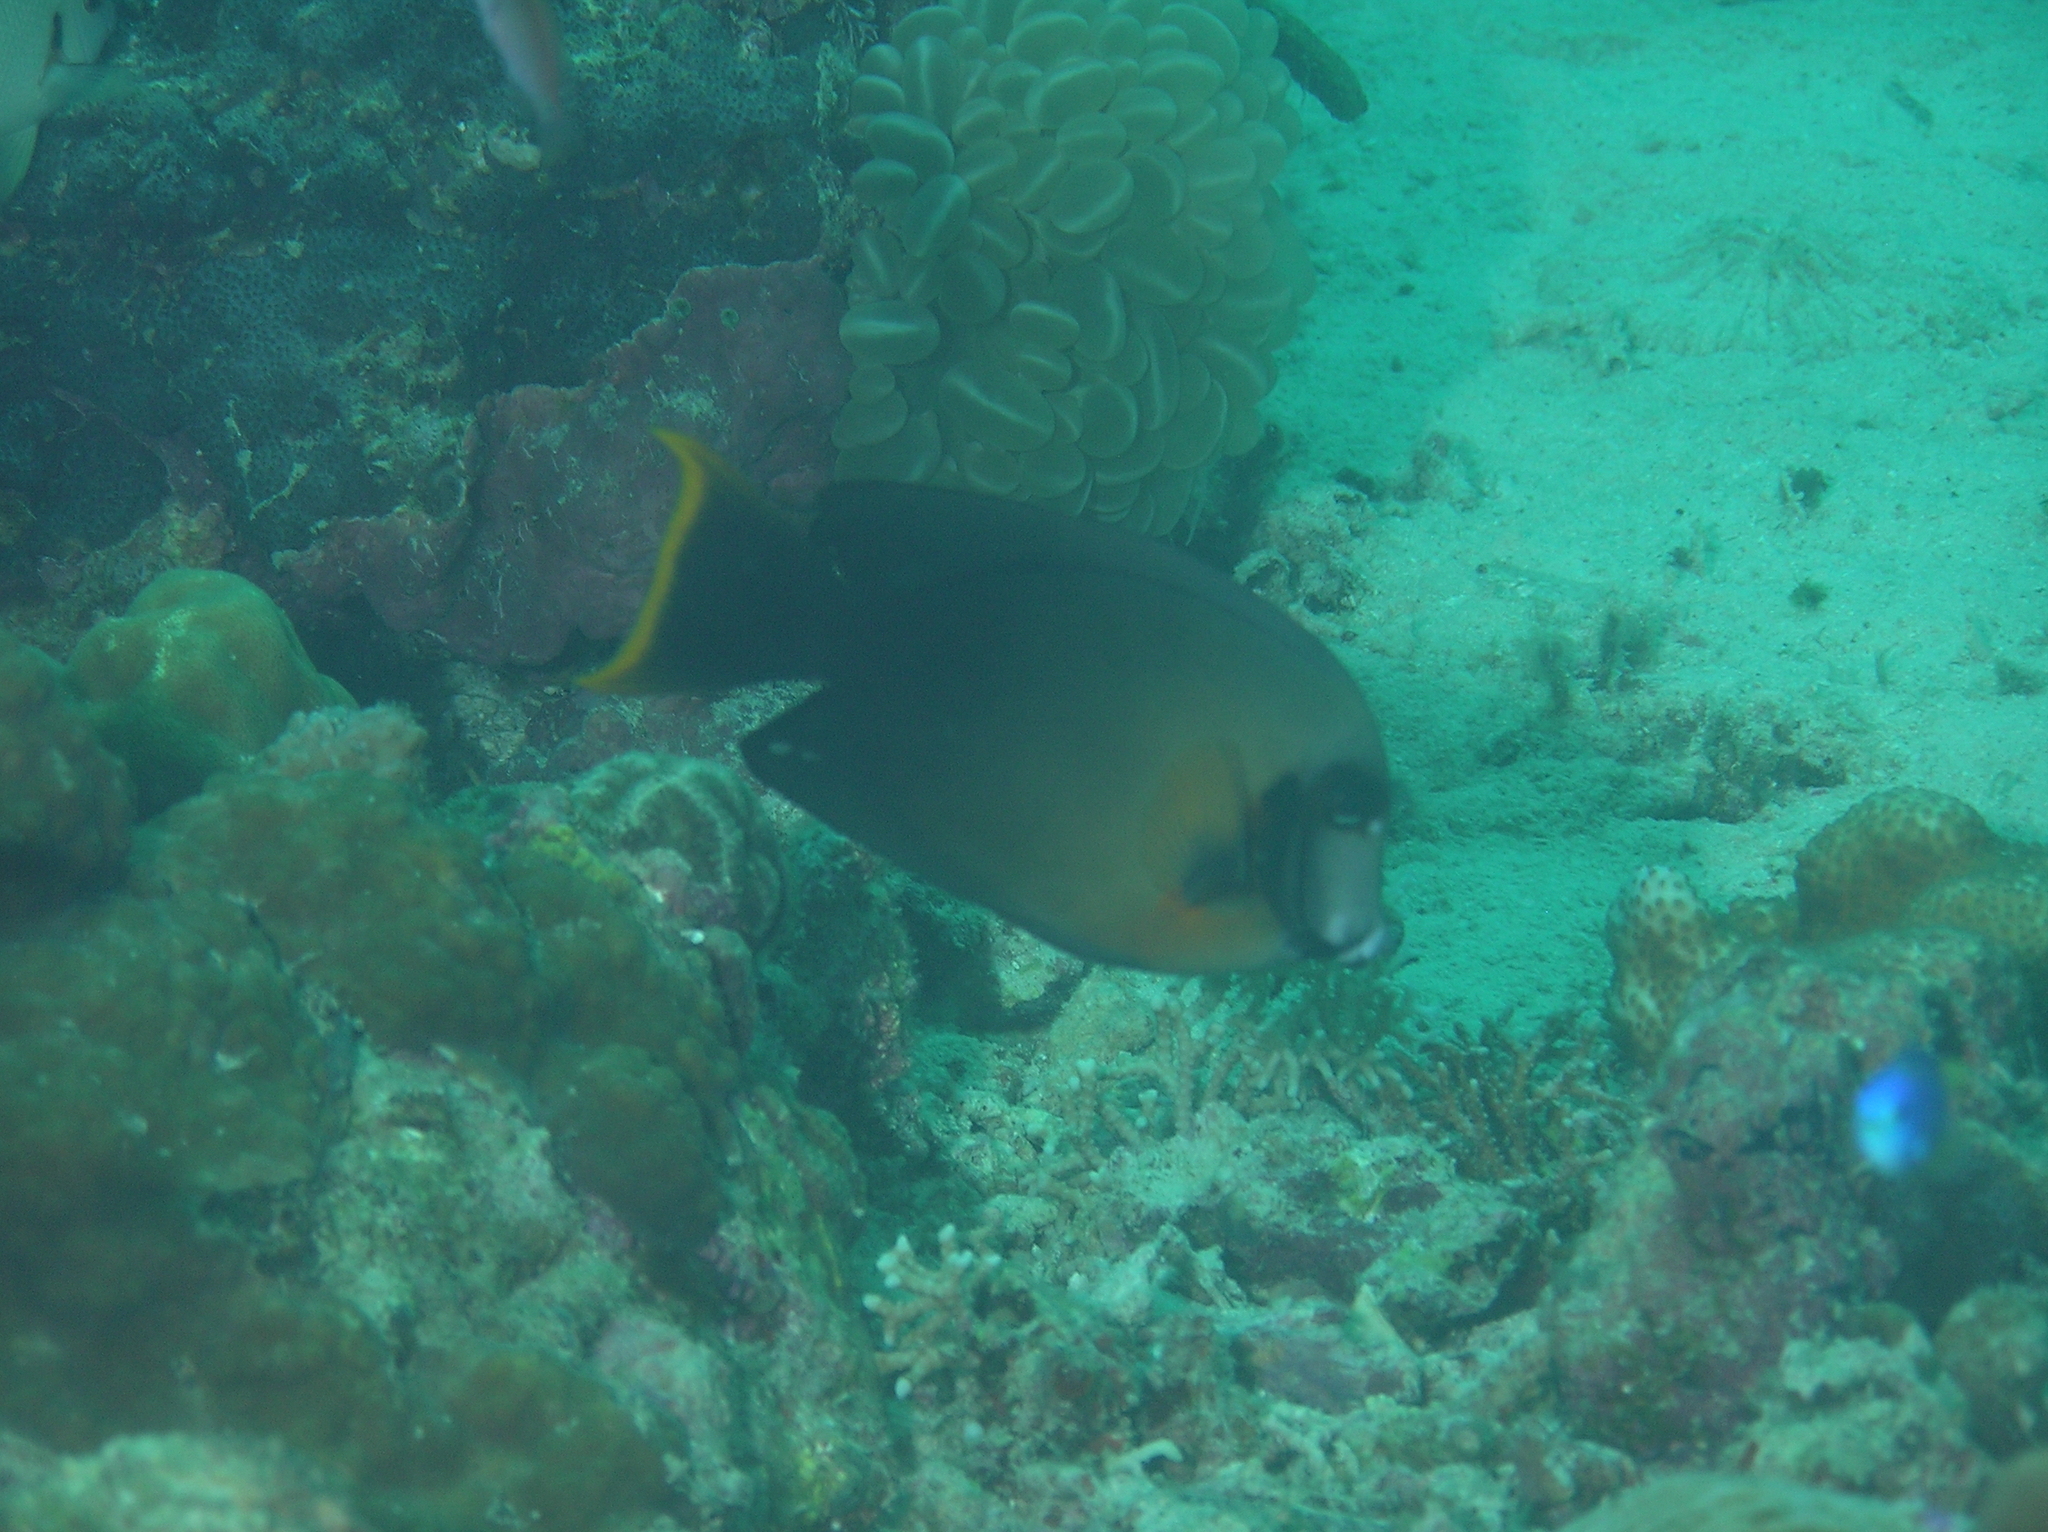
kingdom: Animalia
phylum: Chordata
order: Perciformes
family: Acanthuridae
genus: Acanthurus
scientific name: Acanthurus pyroferus
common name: Chocolate surgeonfish
